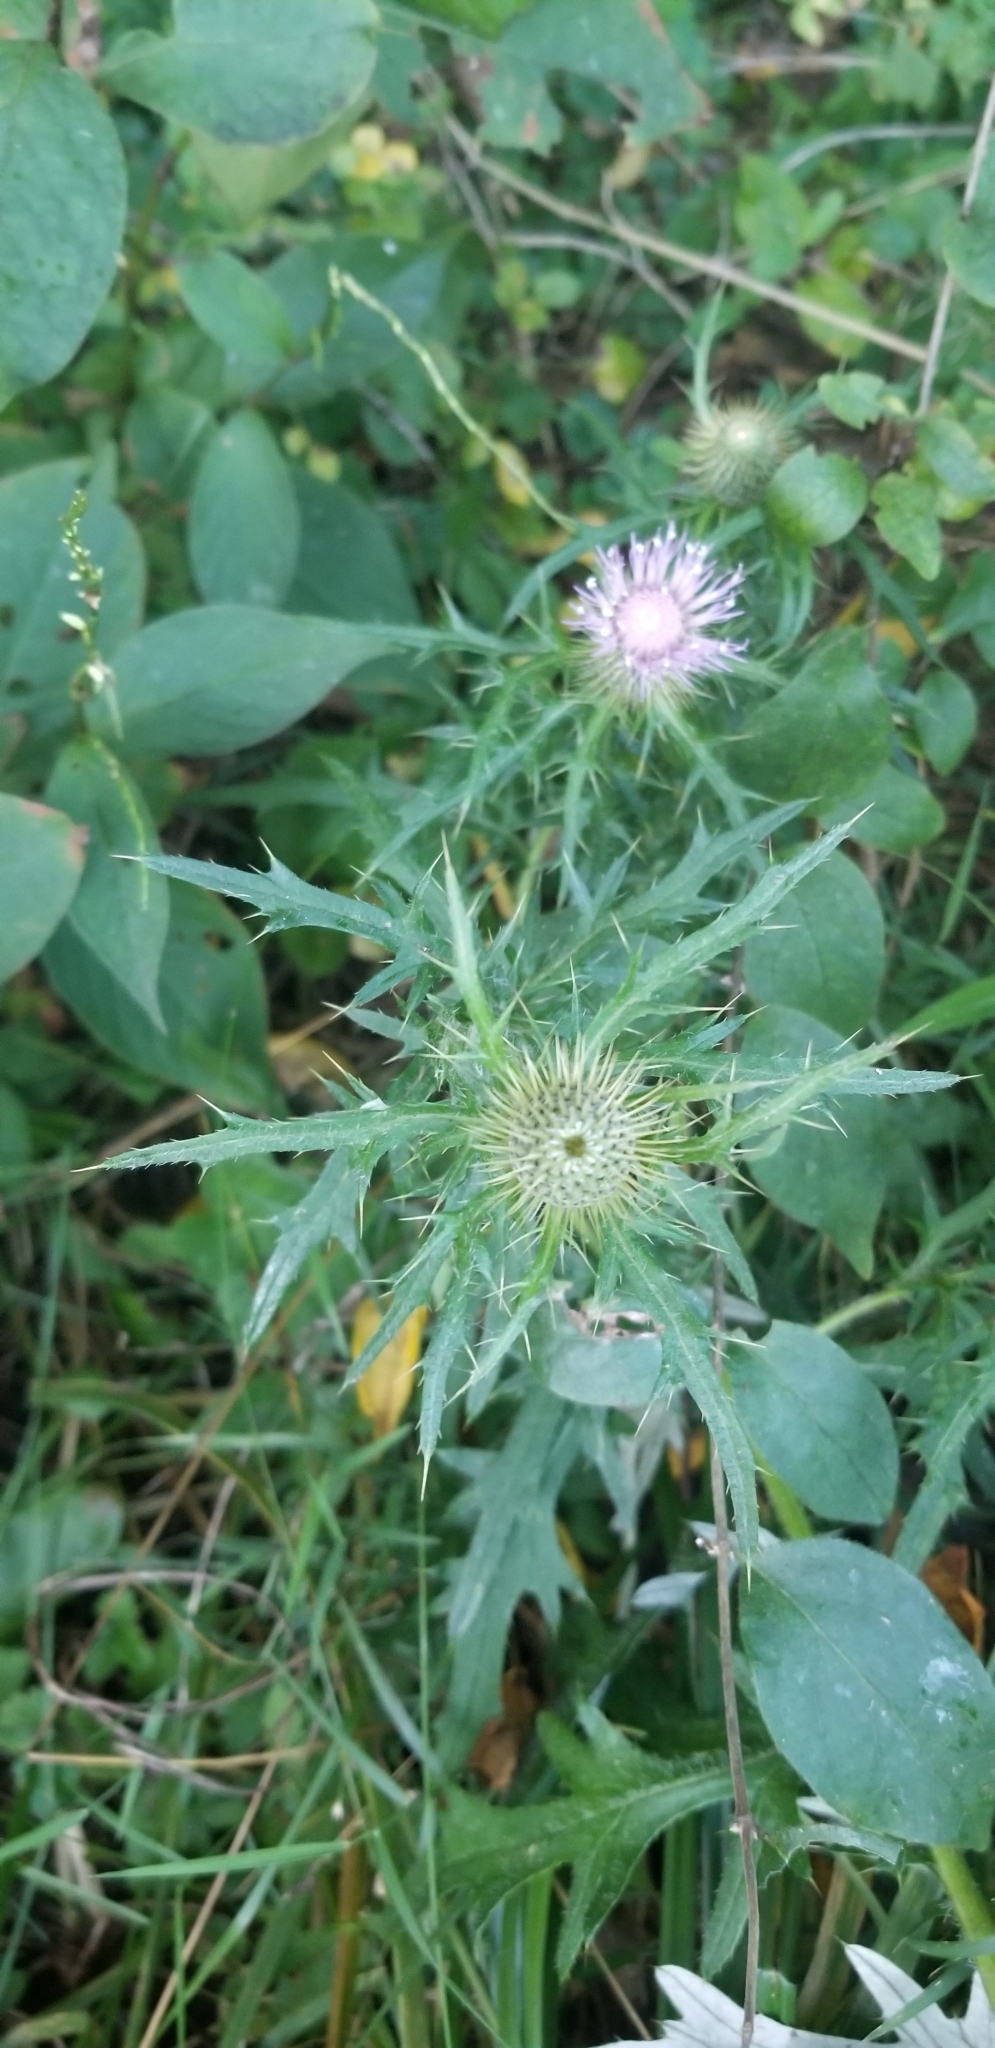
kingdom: Plantae
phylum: Tracheophyta
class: Magnoliopsida
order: Asterales
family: Asteraceae
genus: Cirsium
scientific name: Cirsium discolor
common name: Field thistle
